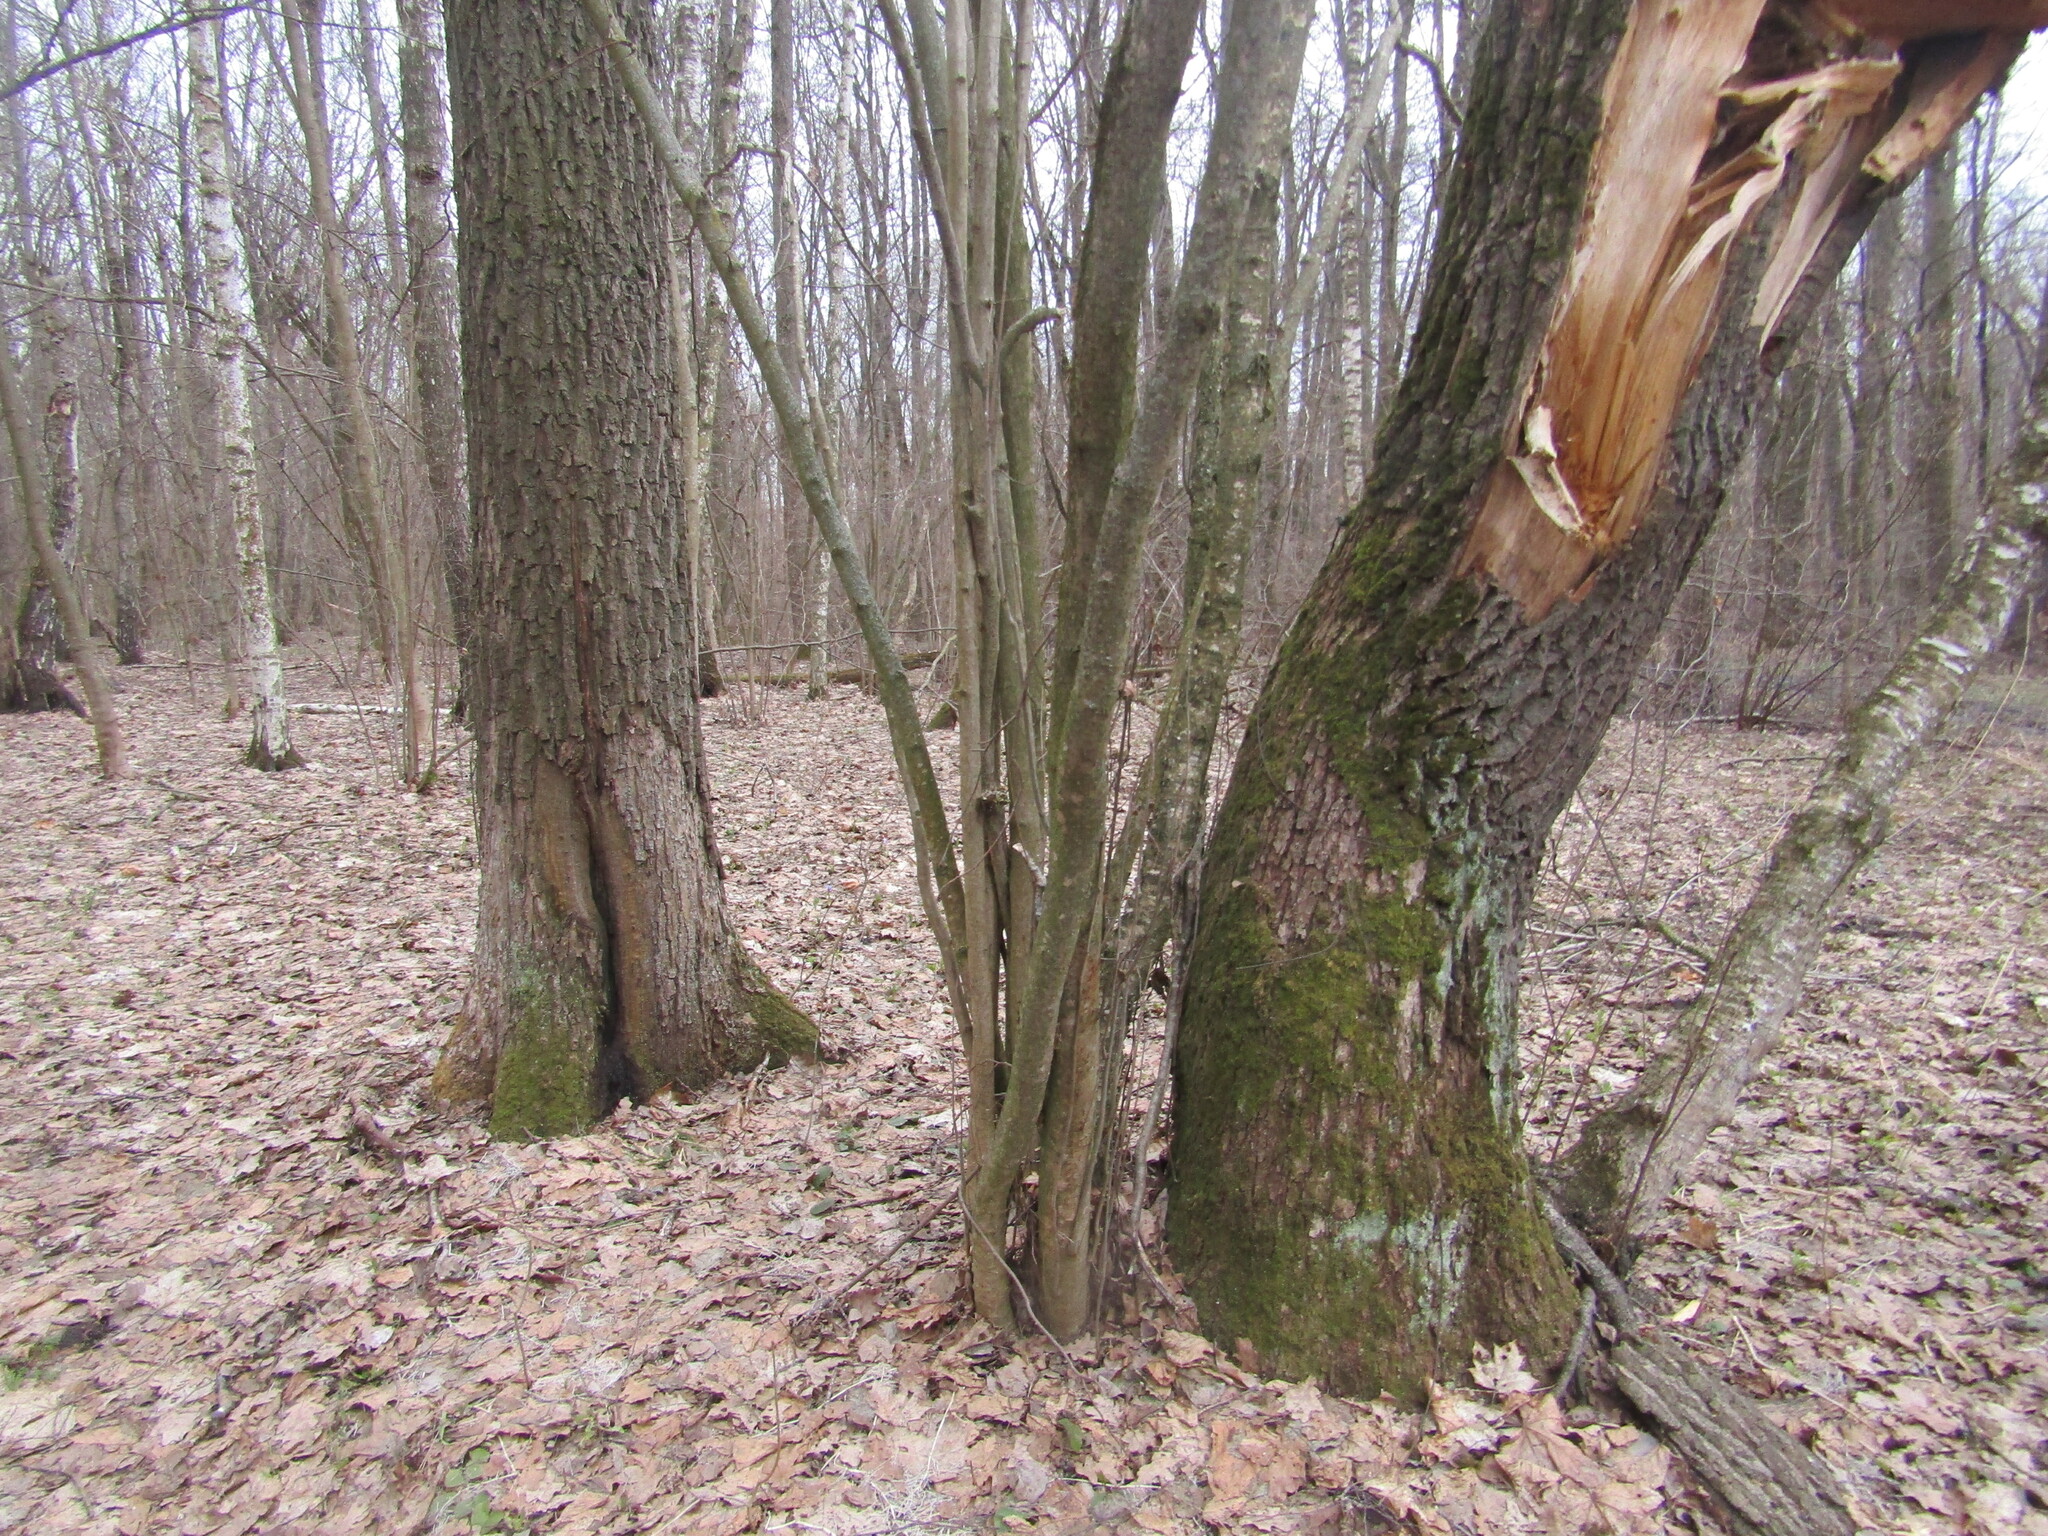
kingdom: Plantae
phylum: Tracheophyta
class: Magnoliopsida
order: Fagales
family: Fagaceae
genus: Quercus
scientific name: Quercus robur
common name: Pedunculate oak
